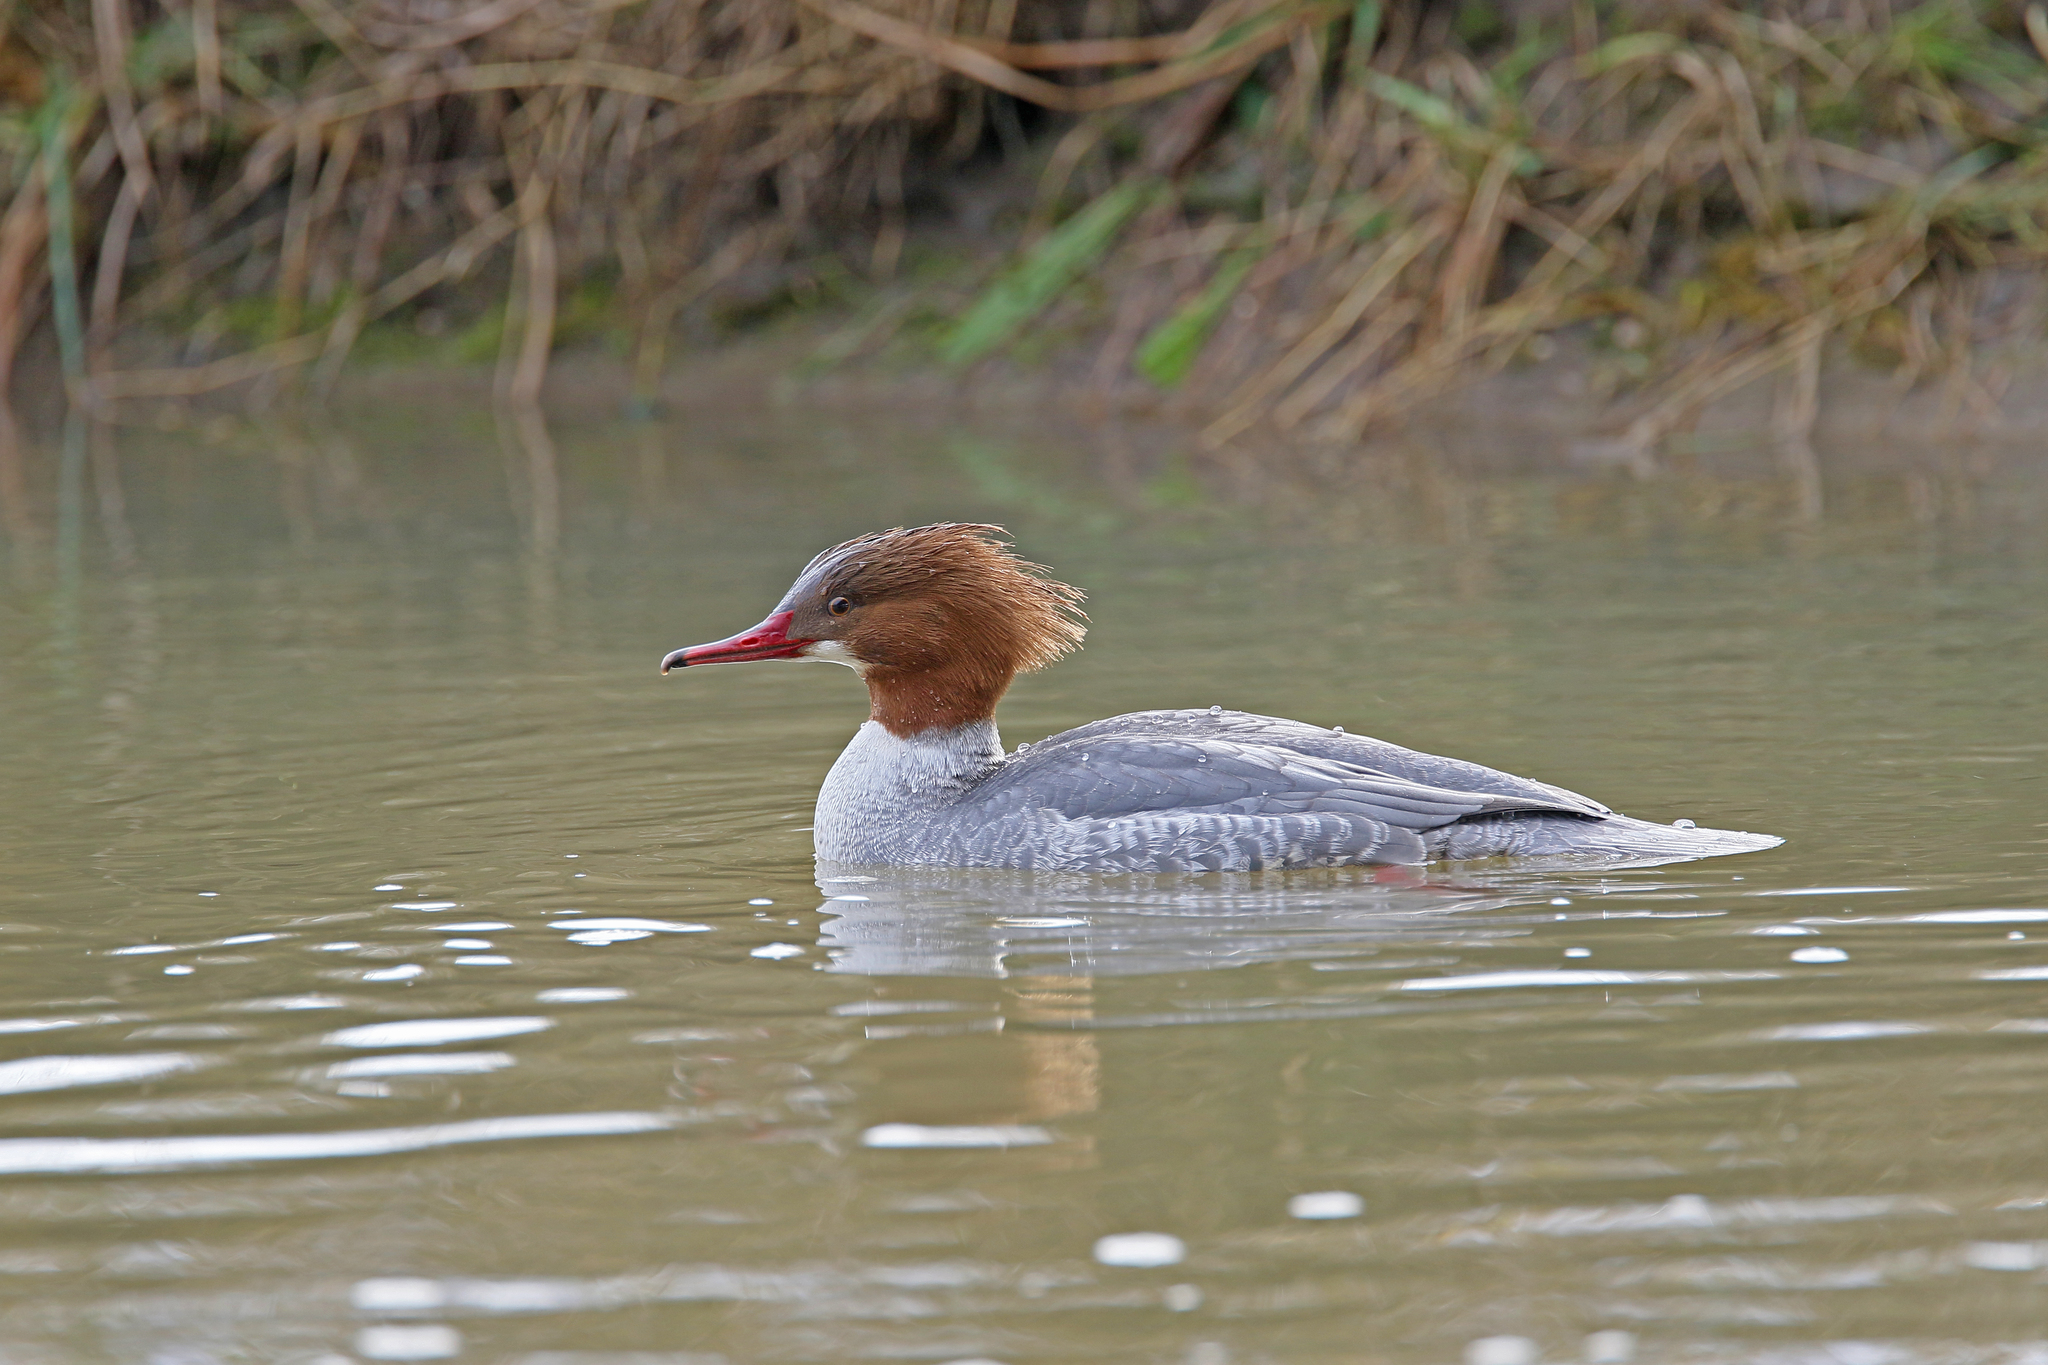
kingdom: Animalia
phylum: Chordata
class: Aves
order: Anseriformes
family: Anatidae
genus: Mergus
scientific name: Mergus merganser
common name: Common merganser
